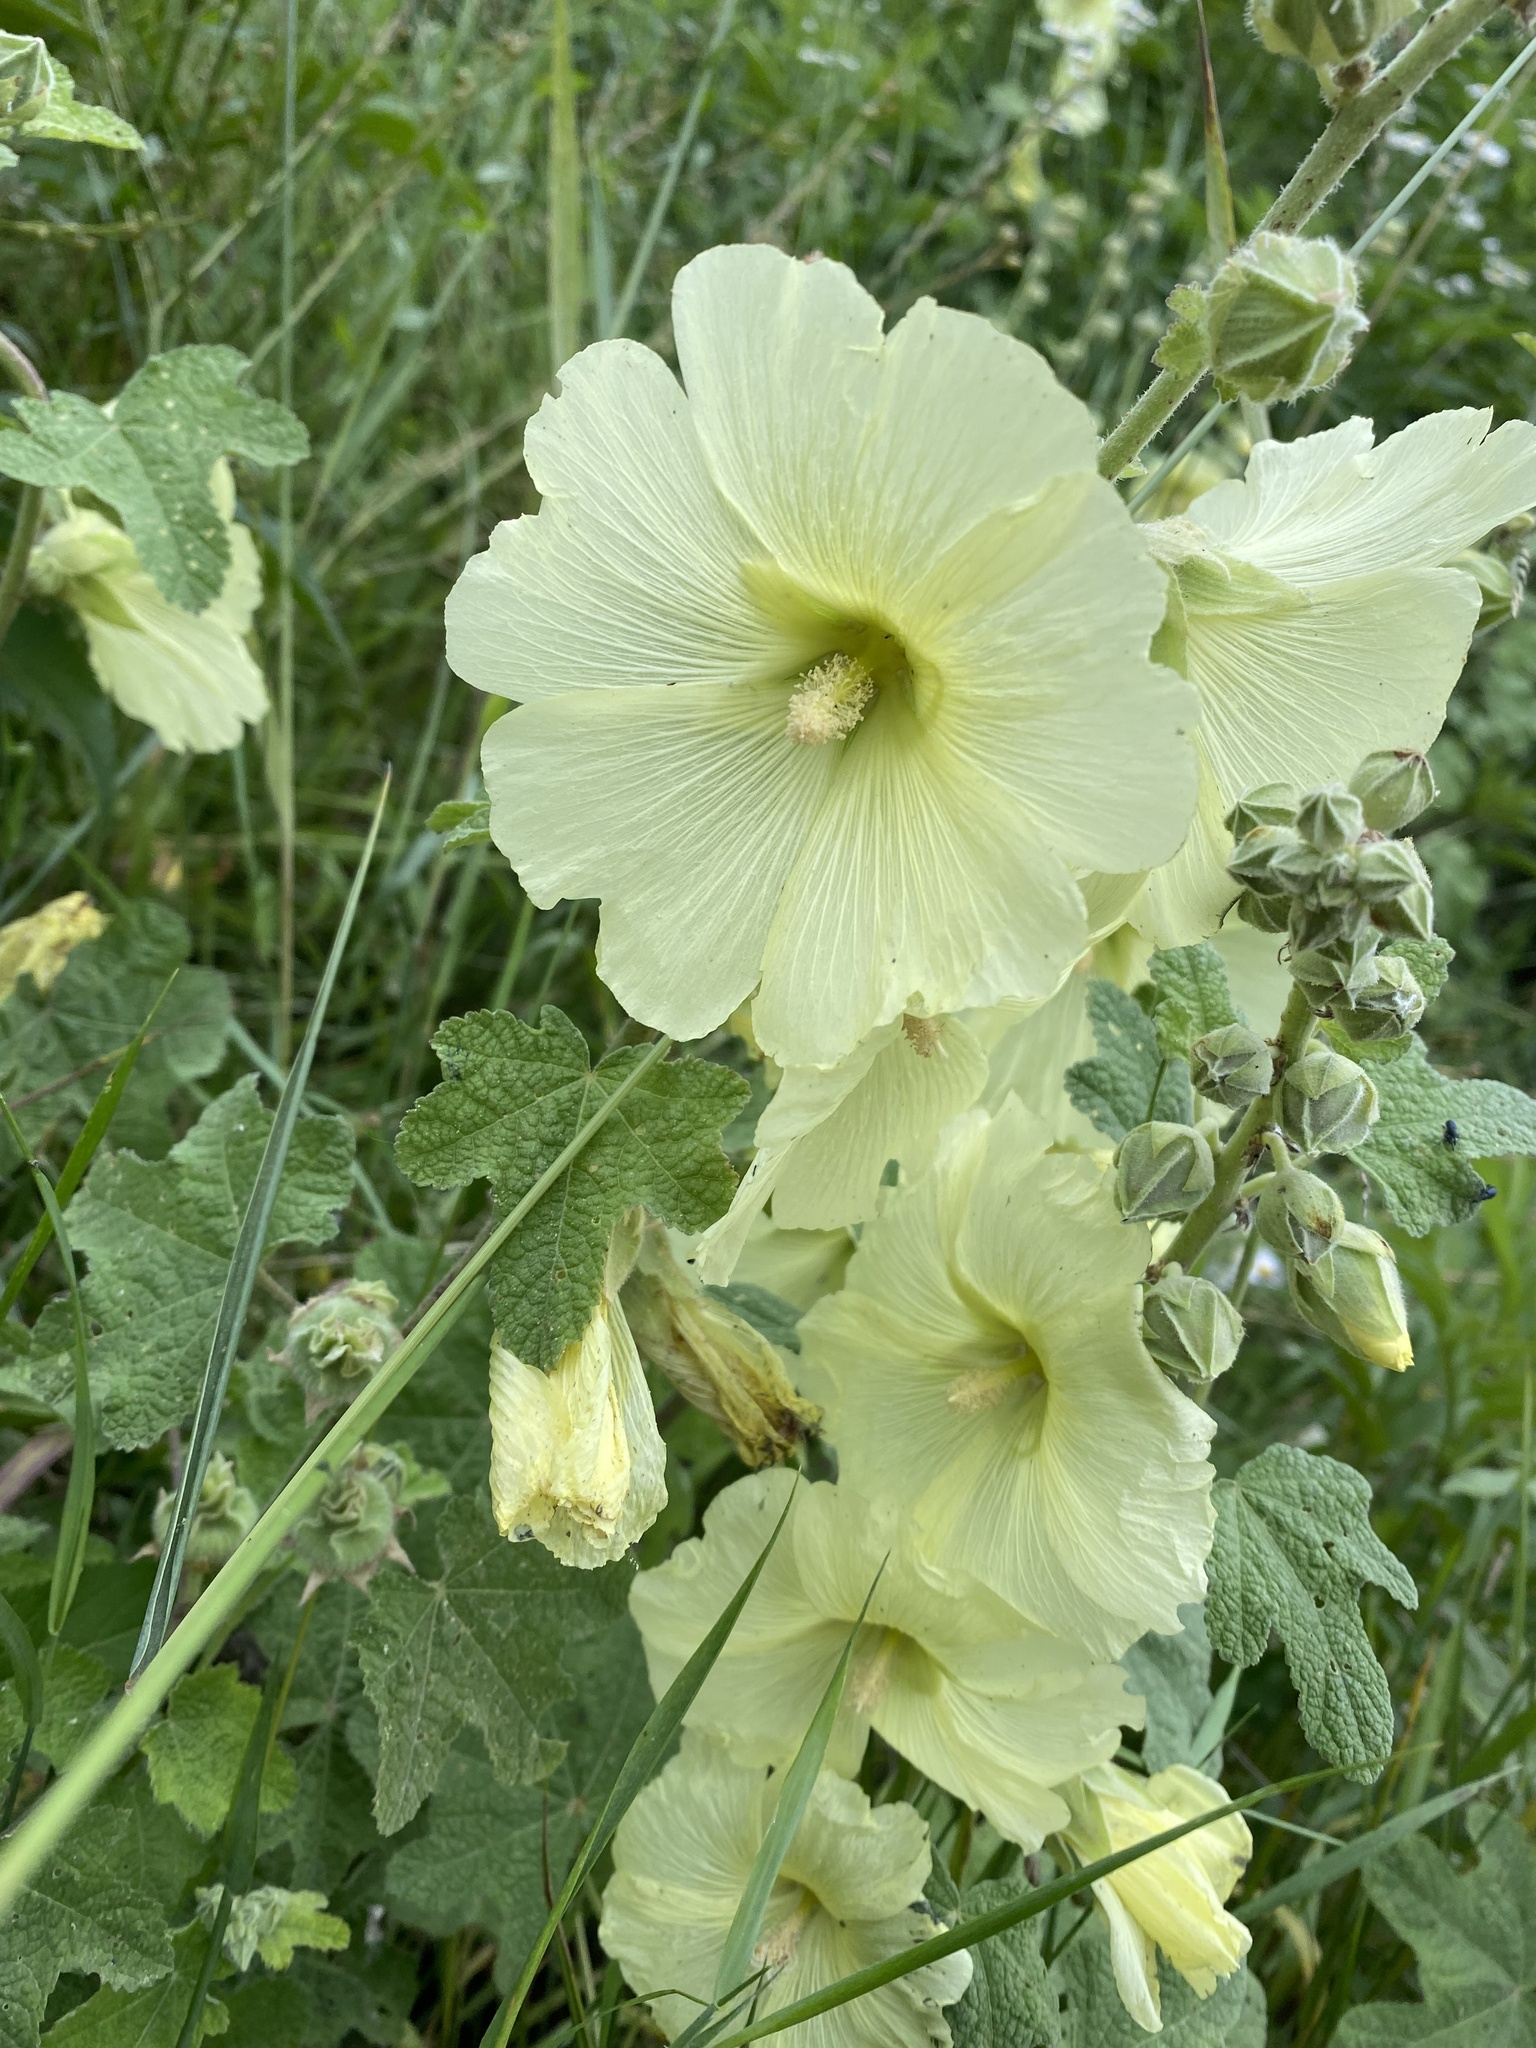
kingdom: Plantae
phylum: Tracheophyta
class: Magnoliopsida
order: Malvales
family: Malvaceae
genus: Alcea
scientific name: Alcea rugosa
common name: Russian hollyhock
